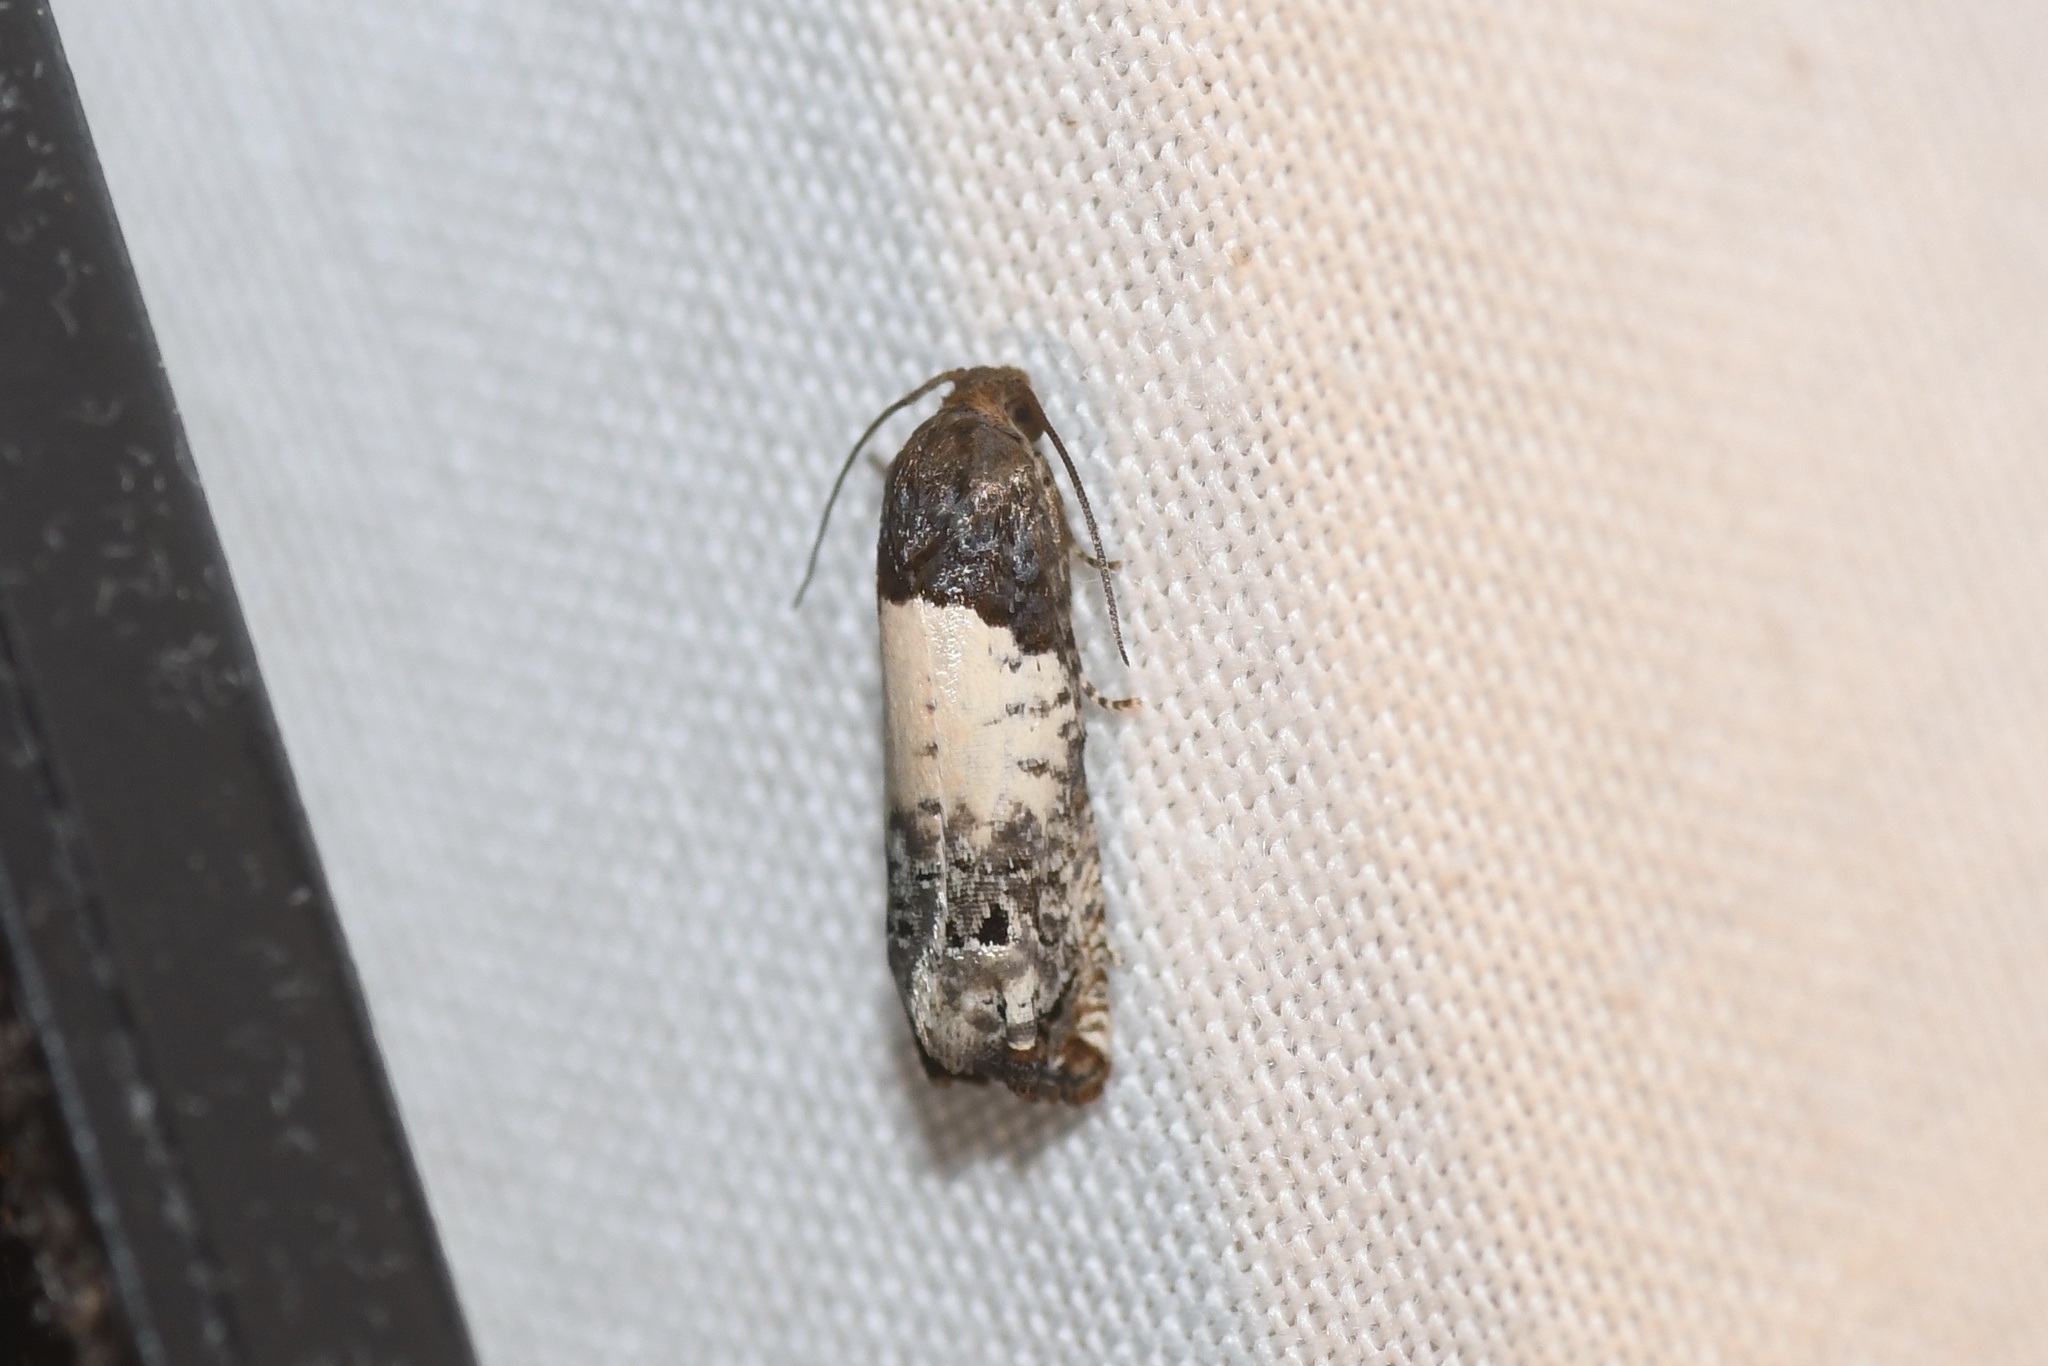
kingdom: Animalia
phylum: Arthropoda
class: Insecta
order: Lepidoptera
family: Tortricidae
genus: Epiblema
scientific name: Epiblema scudderiana
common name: Goldenrod gall moth
